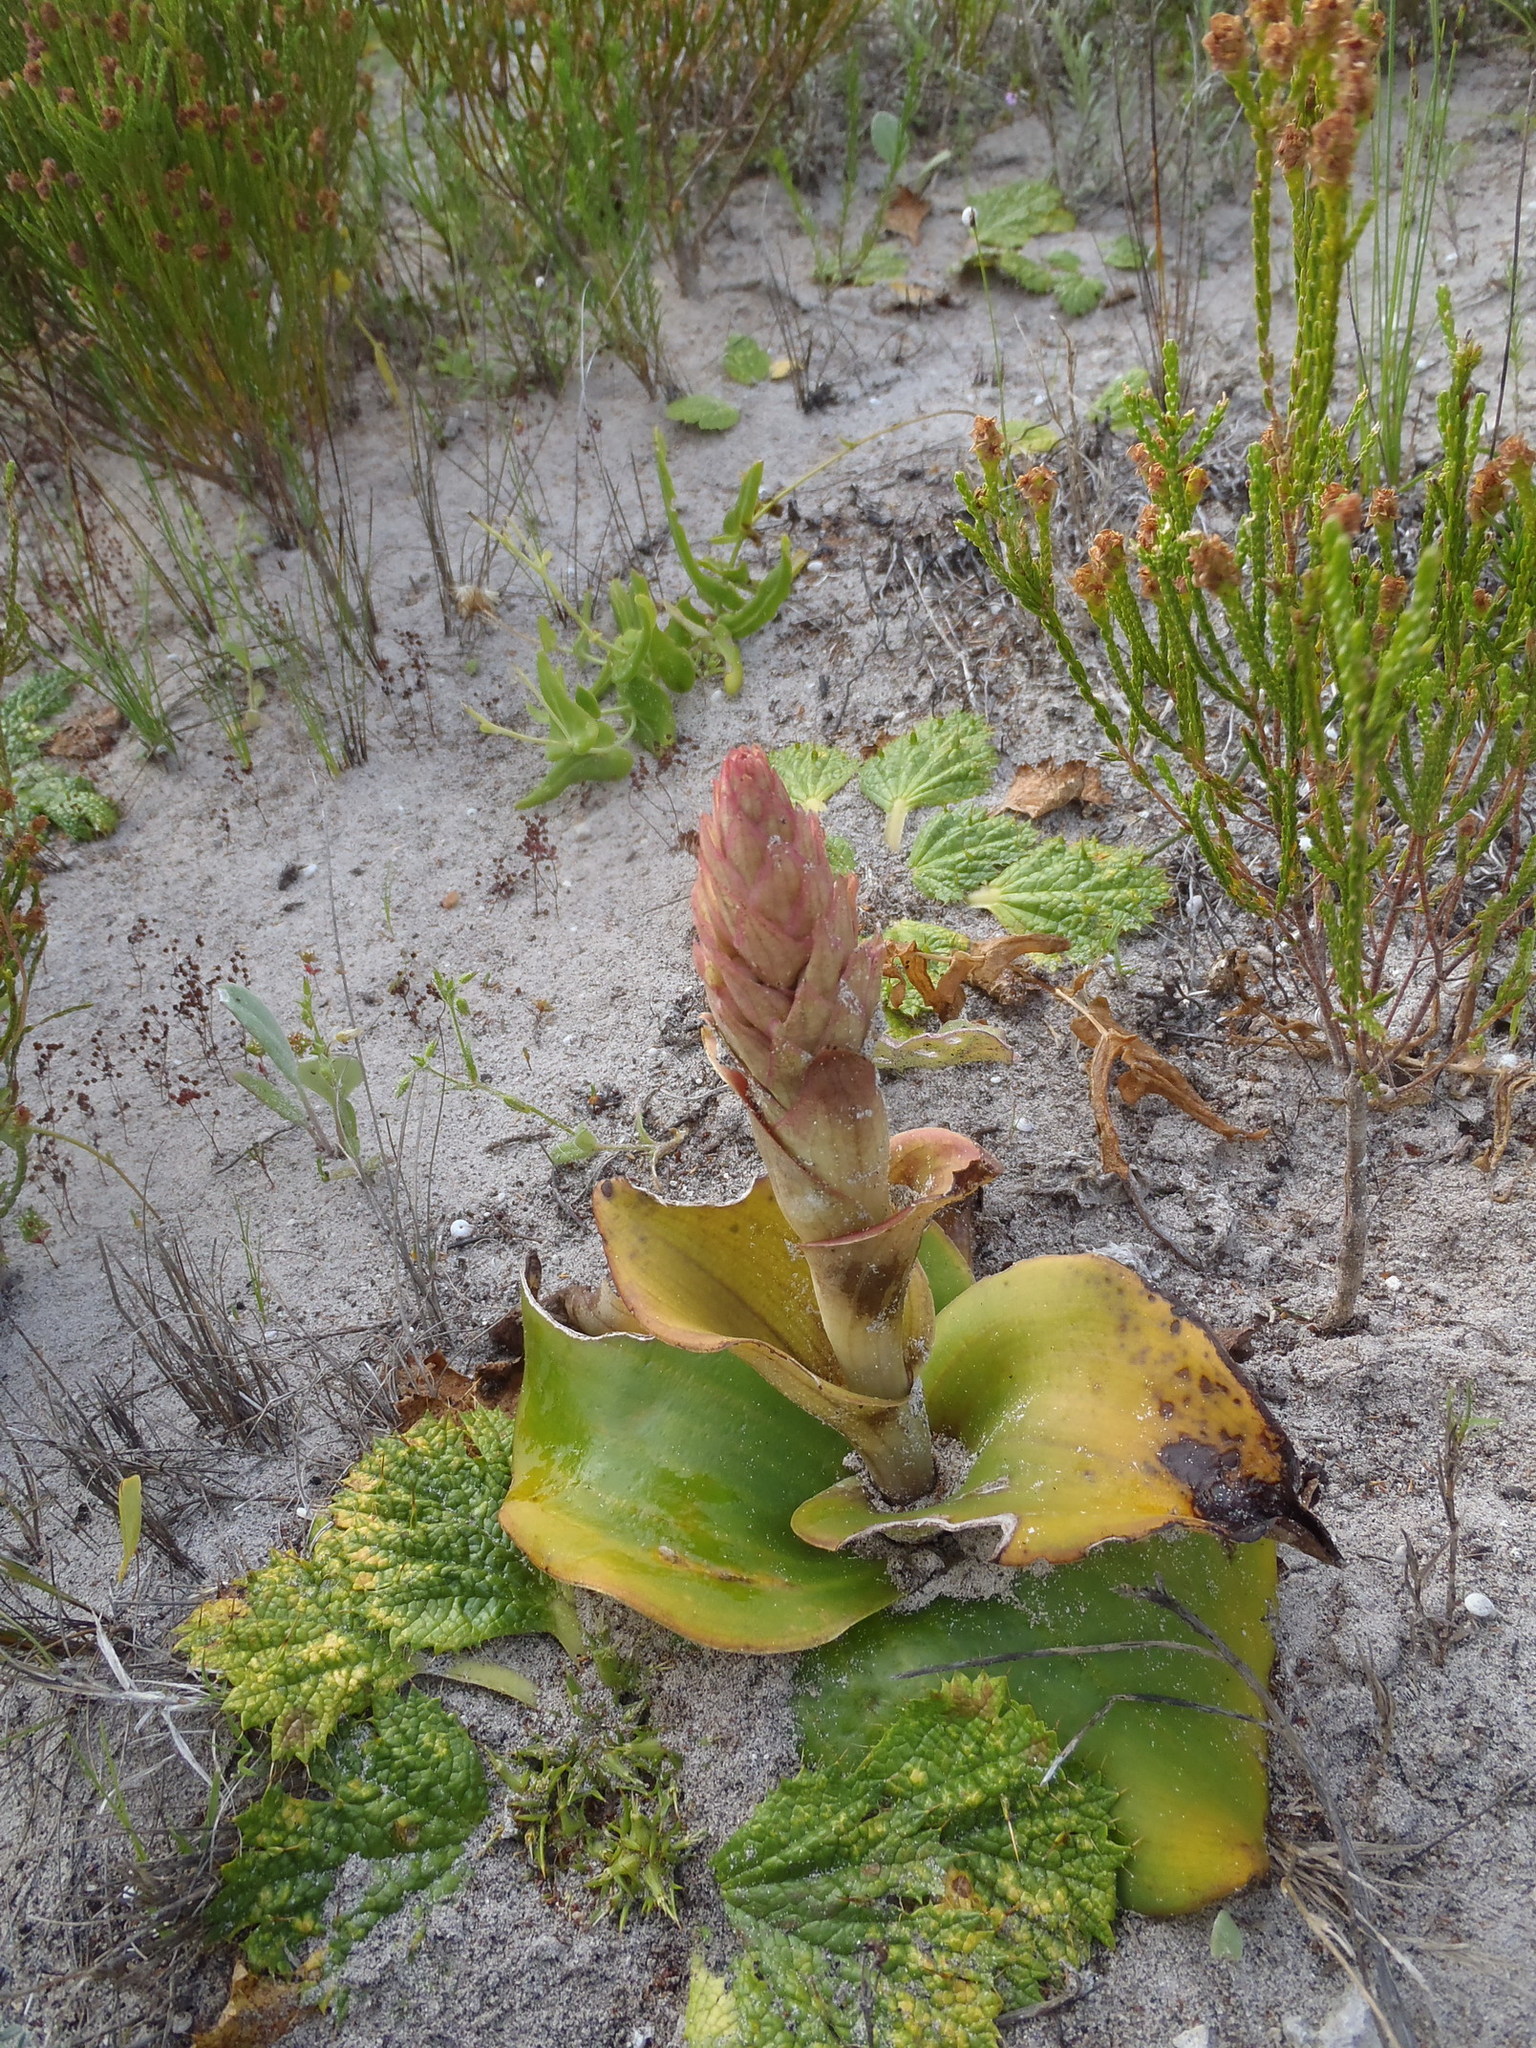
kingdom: Plantae
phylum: Tracheophyta
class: Liliopsida
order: Asparagales
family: Orchidaceae
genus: Satyrium
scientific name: Satyrium carneum
